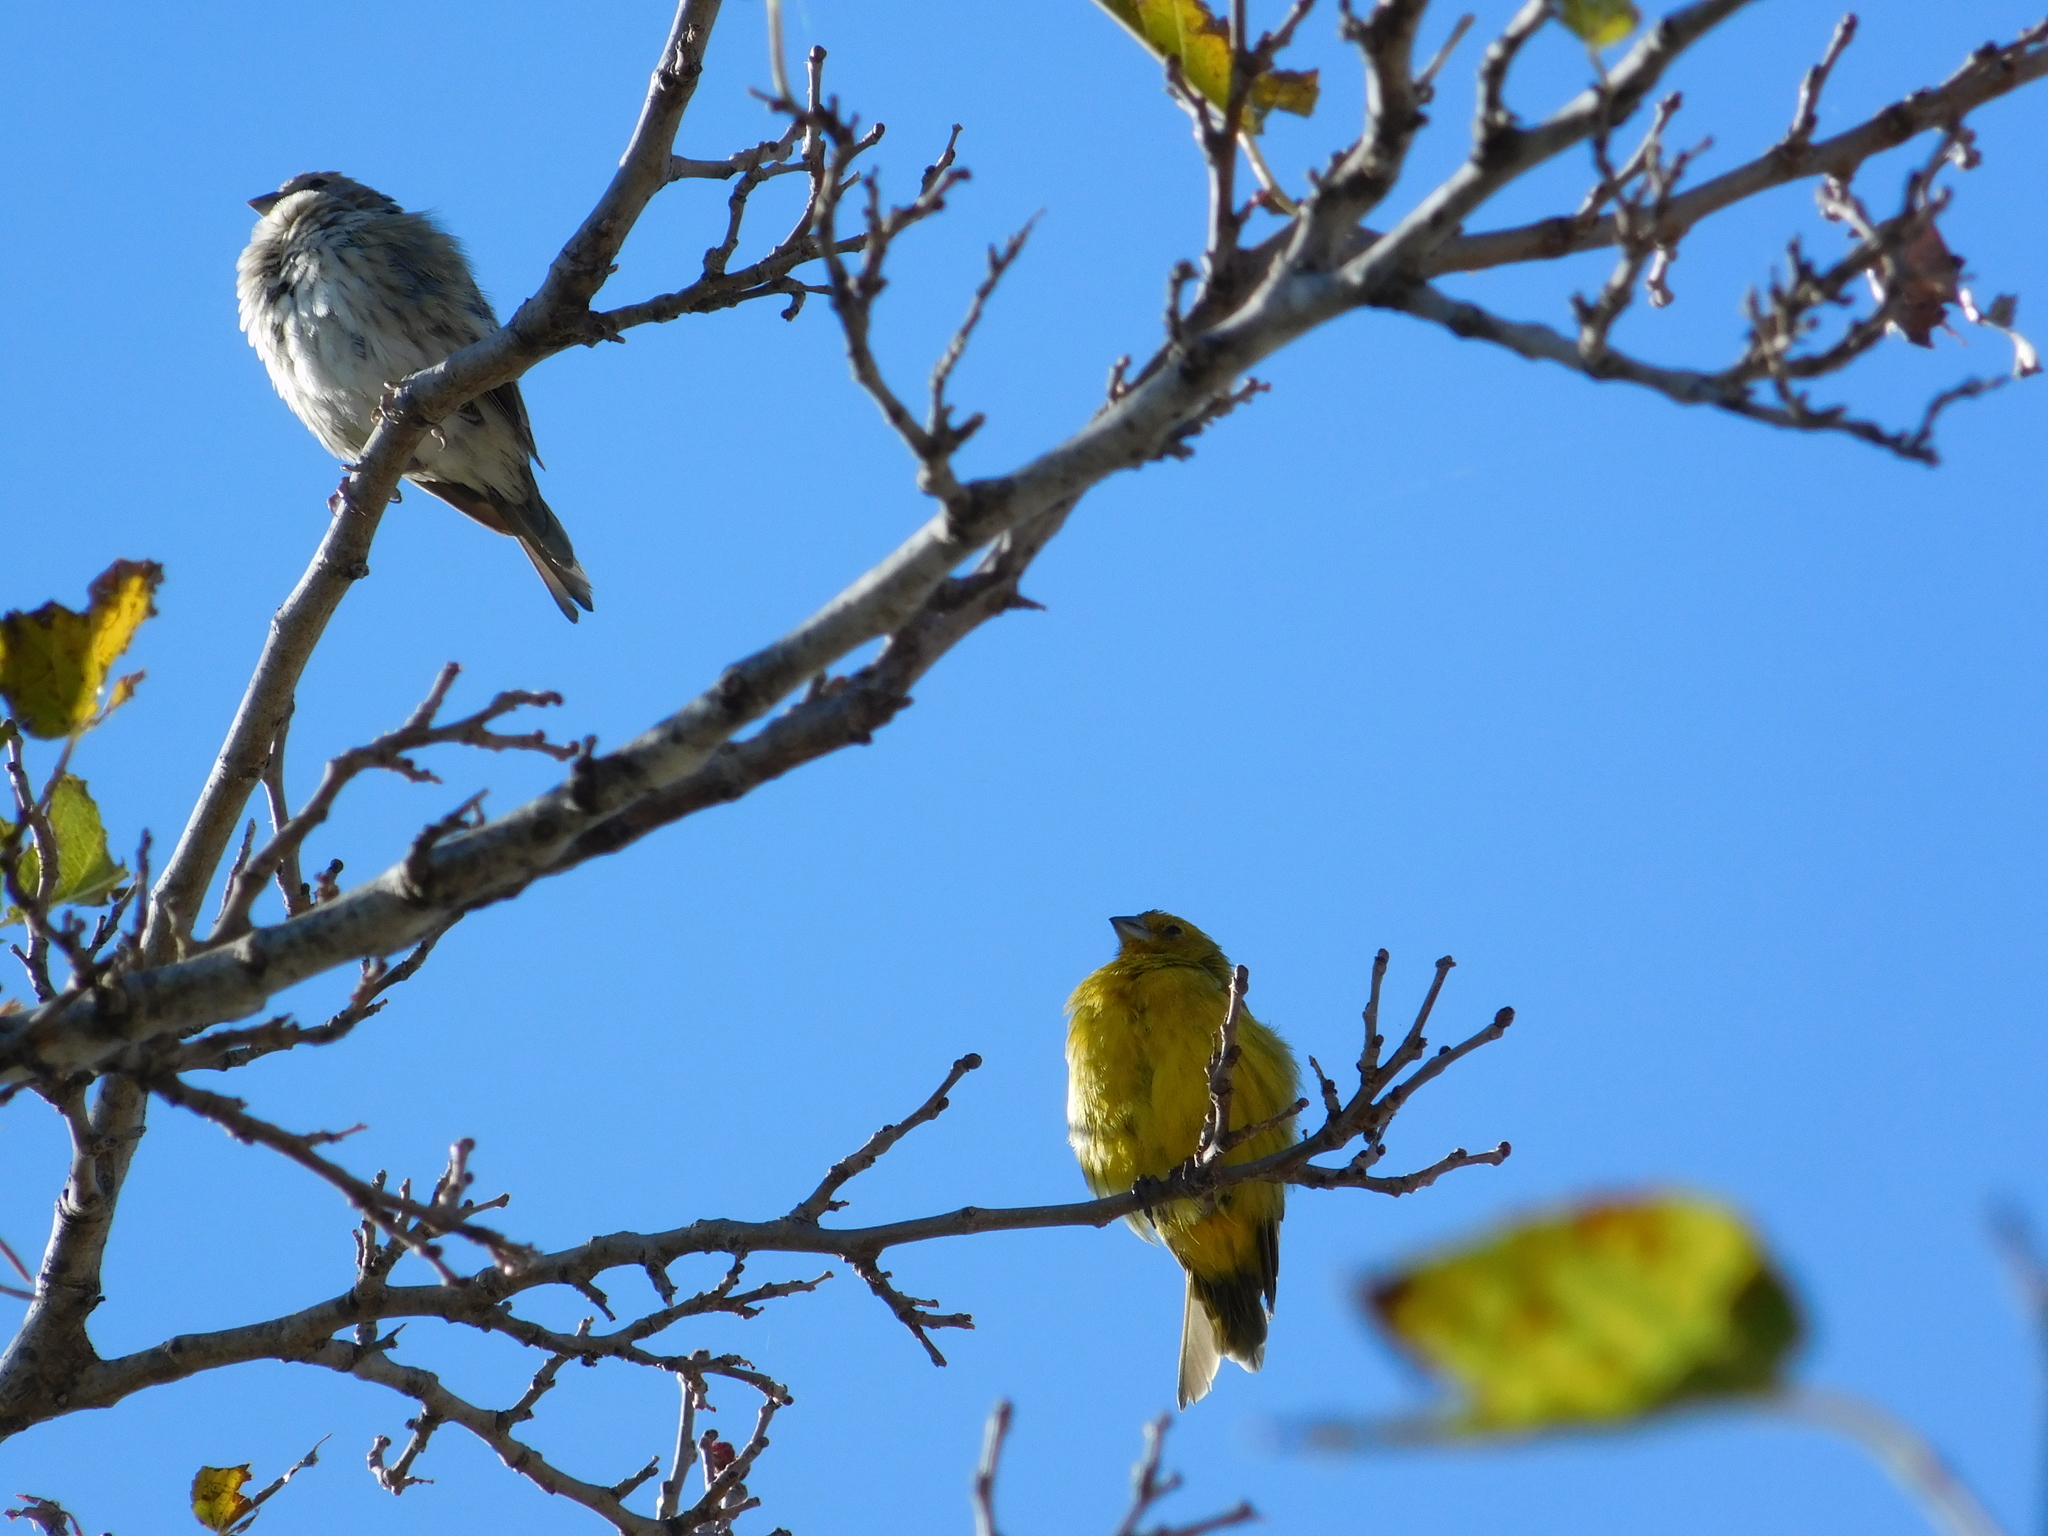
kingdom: Animalia
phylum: Chordata
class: Aves
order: Passeriformes
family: Thraupidae
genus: Sicalis
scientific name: Sicalis flaveola
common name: Saffron finch
